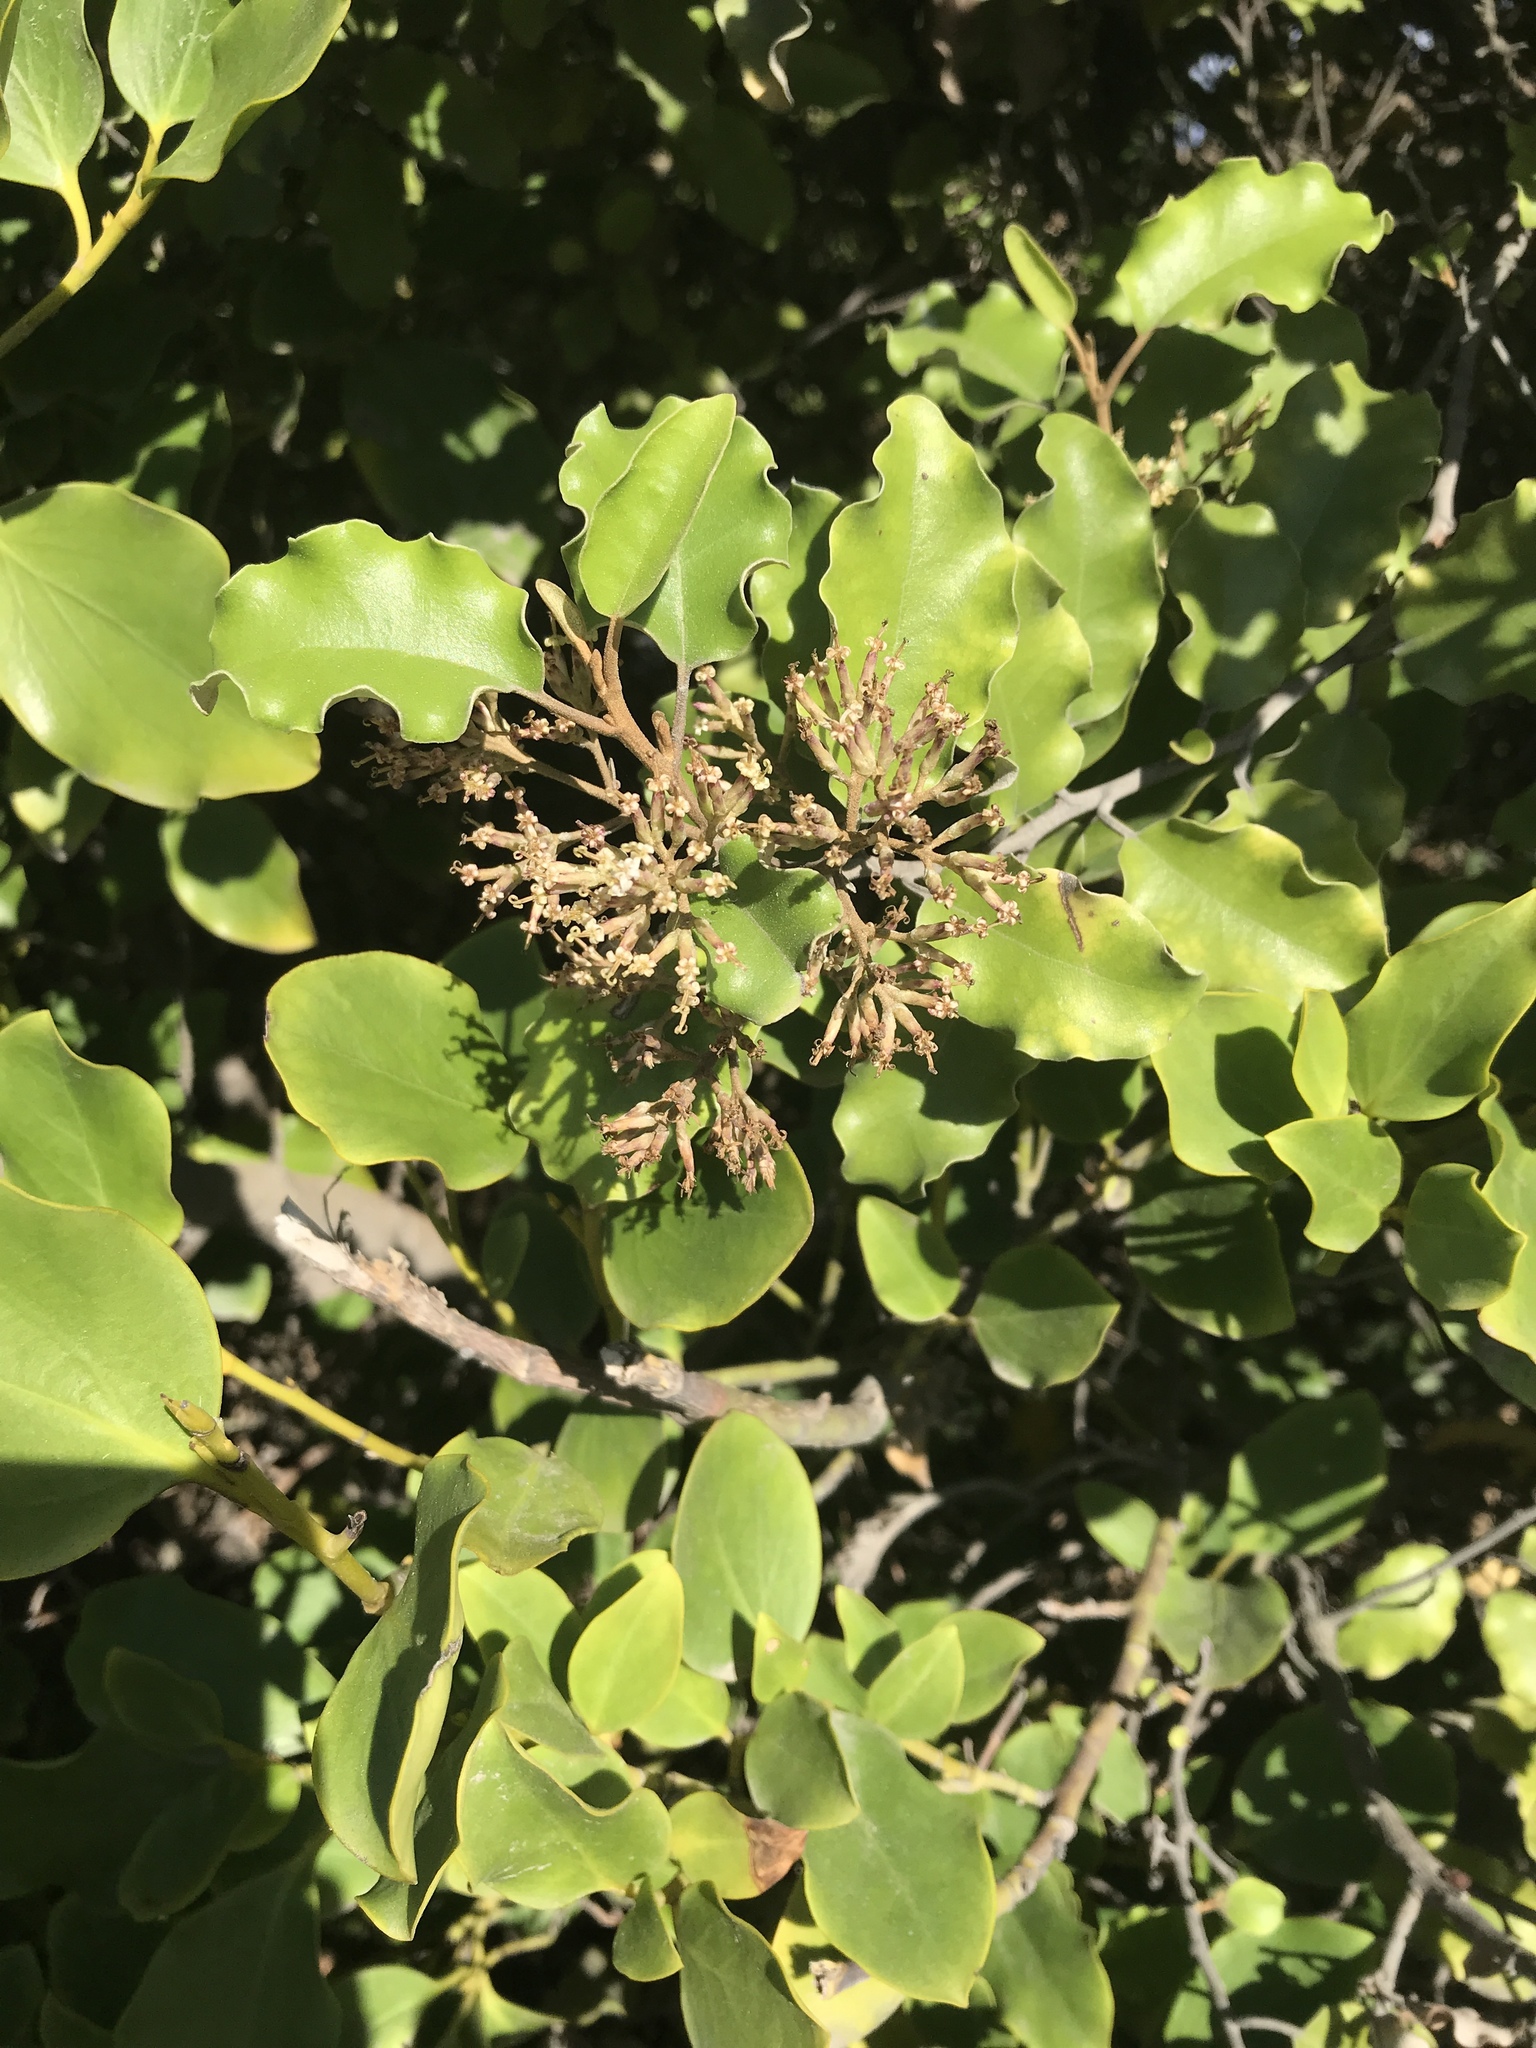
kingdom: Plantae
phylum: Tracheophyta
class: Magnoliopsida
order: Asterales
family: Asteraceae
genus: Olearia
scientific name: Olearia paniculata
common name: Akiraho
